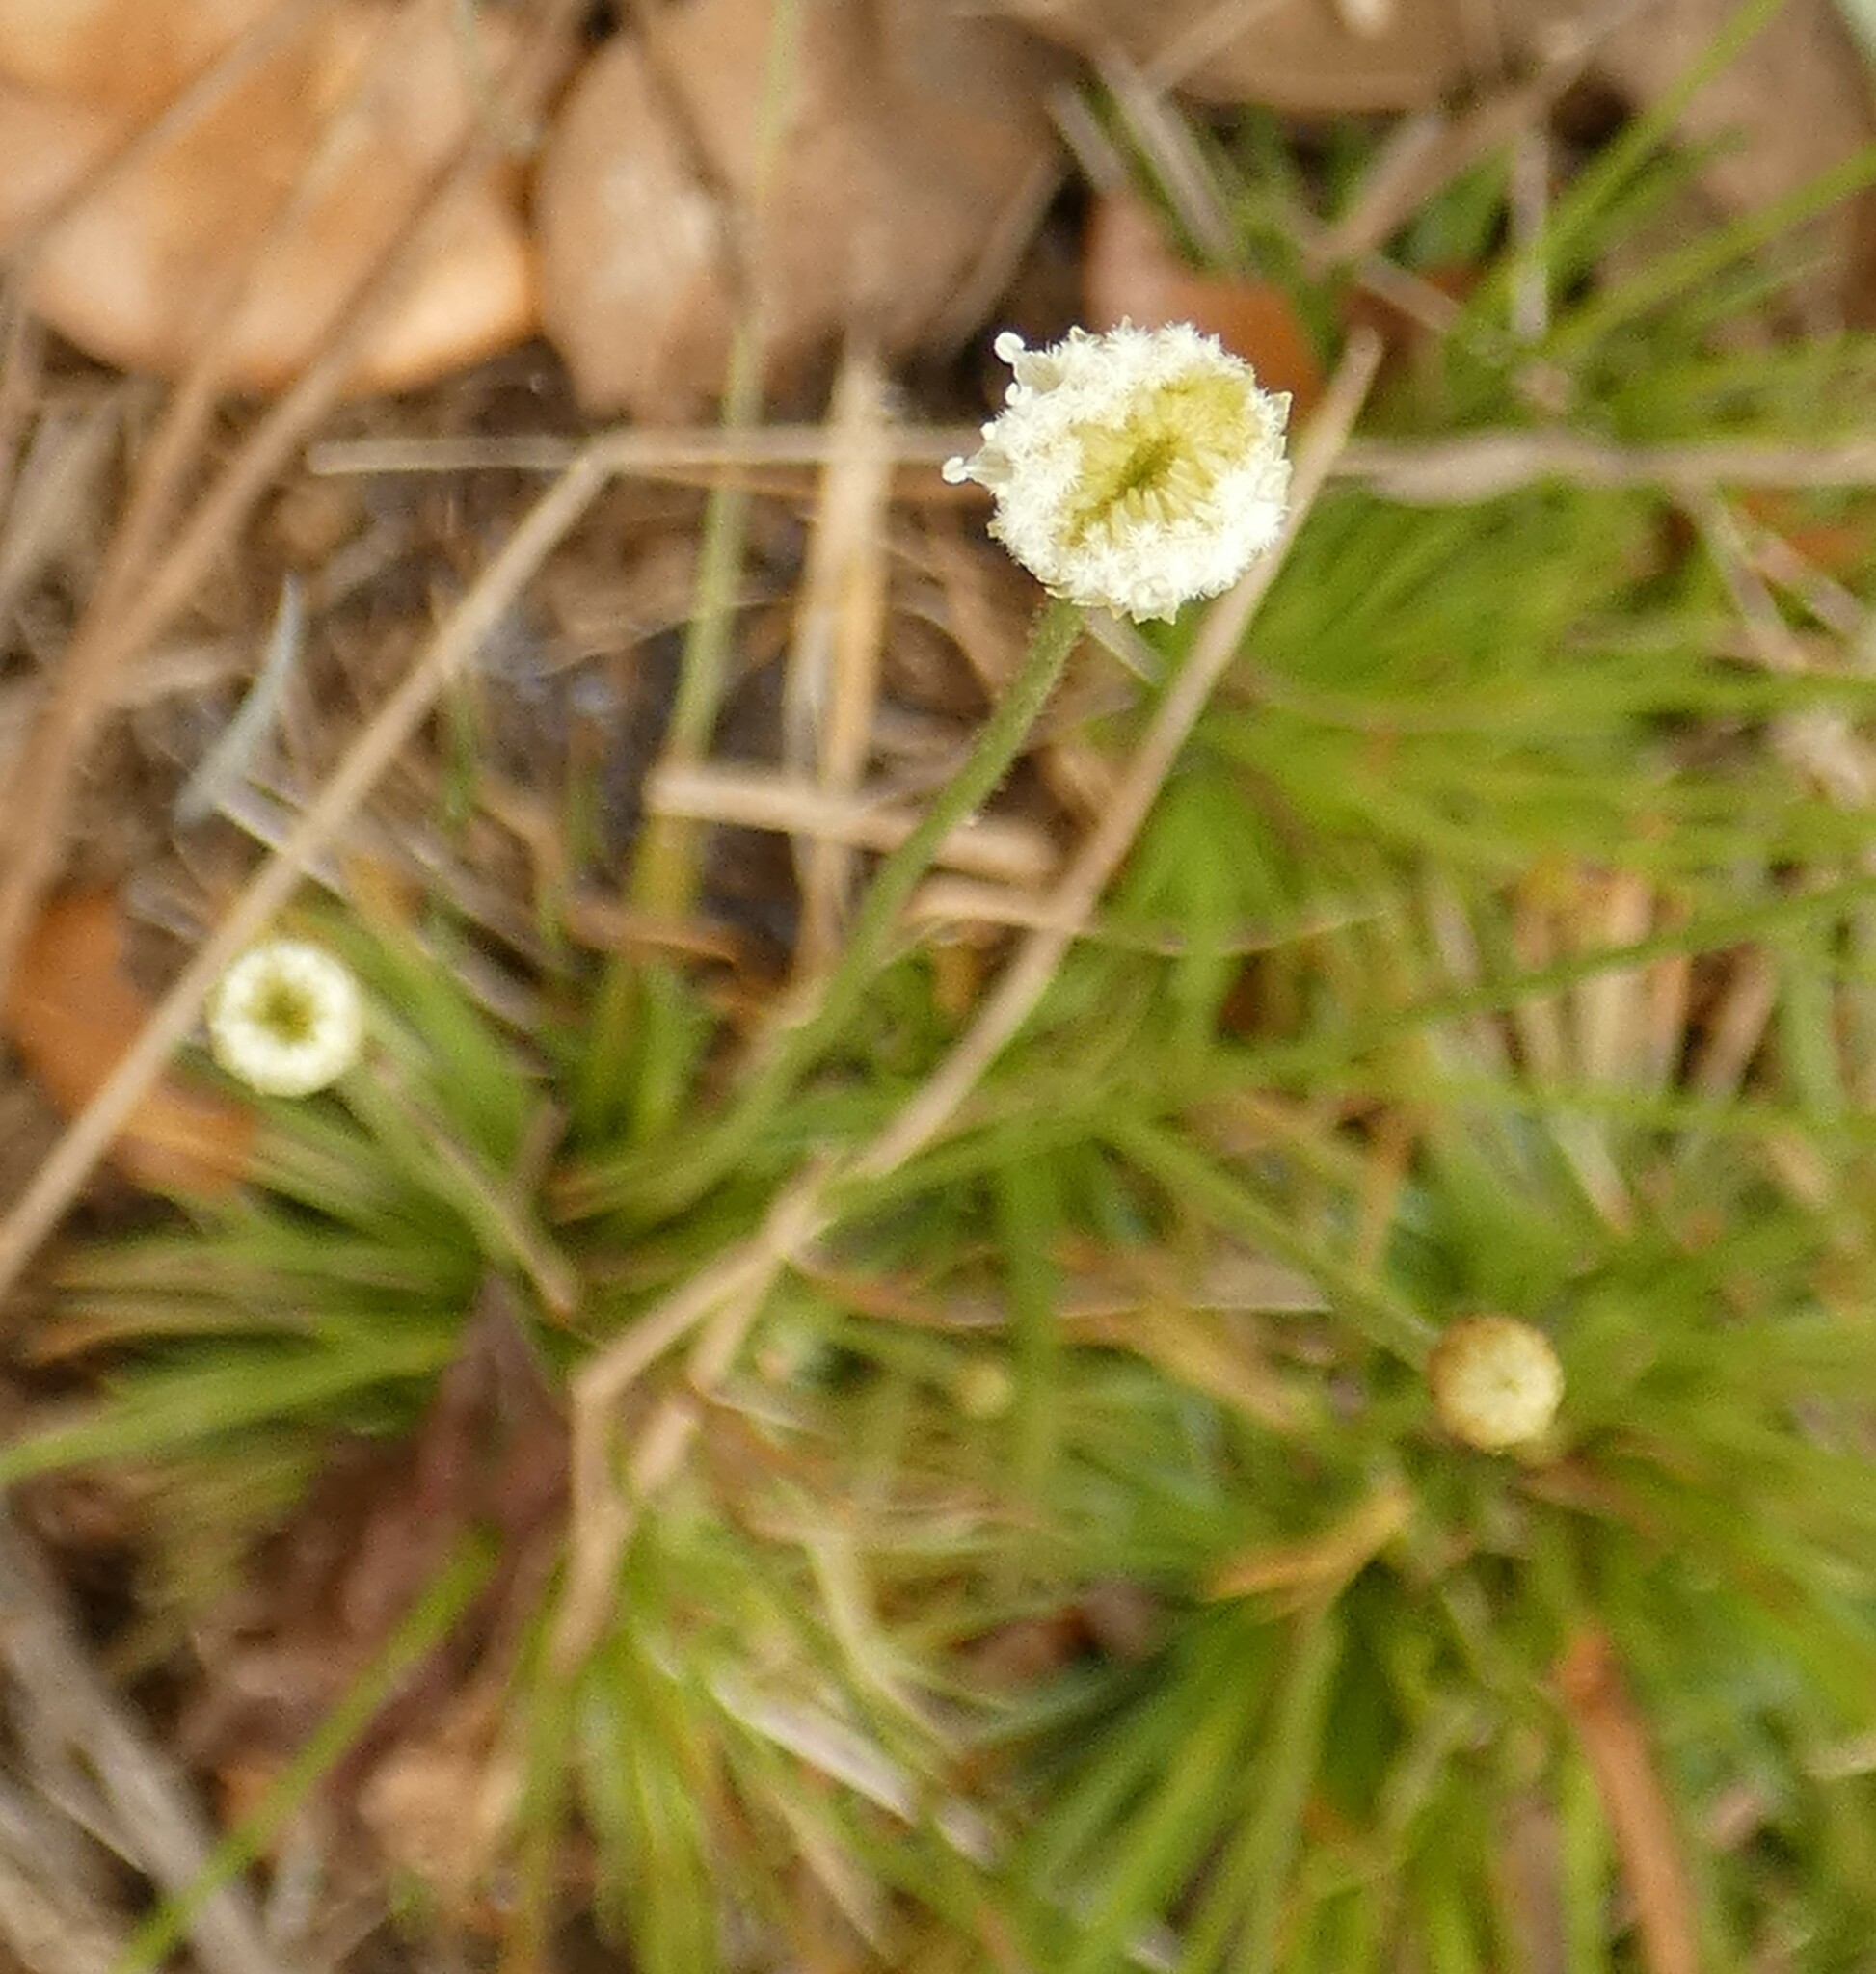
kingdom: Plantae
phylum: Tracheophyta
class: Liliopsida
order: Poales
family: Eriocaulaceae
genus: Syngonanthus
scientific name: Syngonanthus flavidulus
